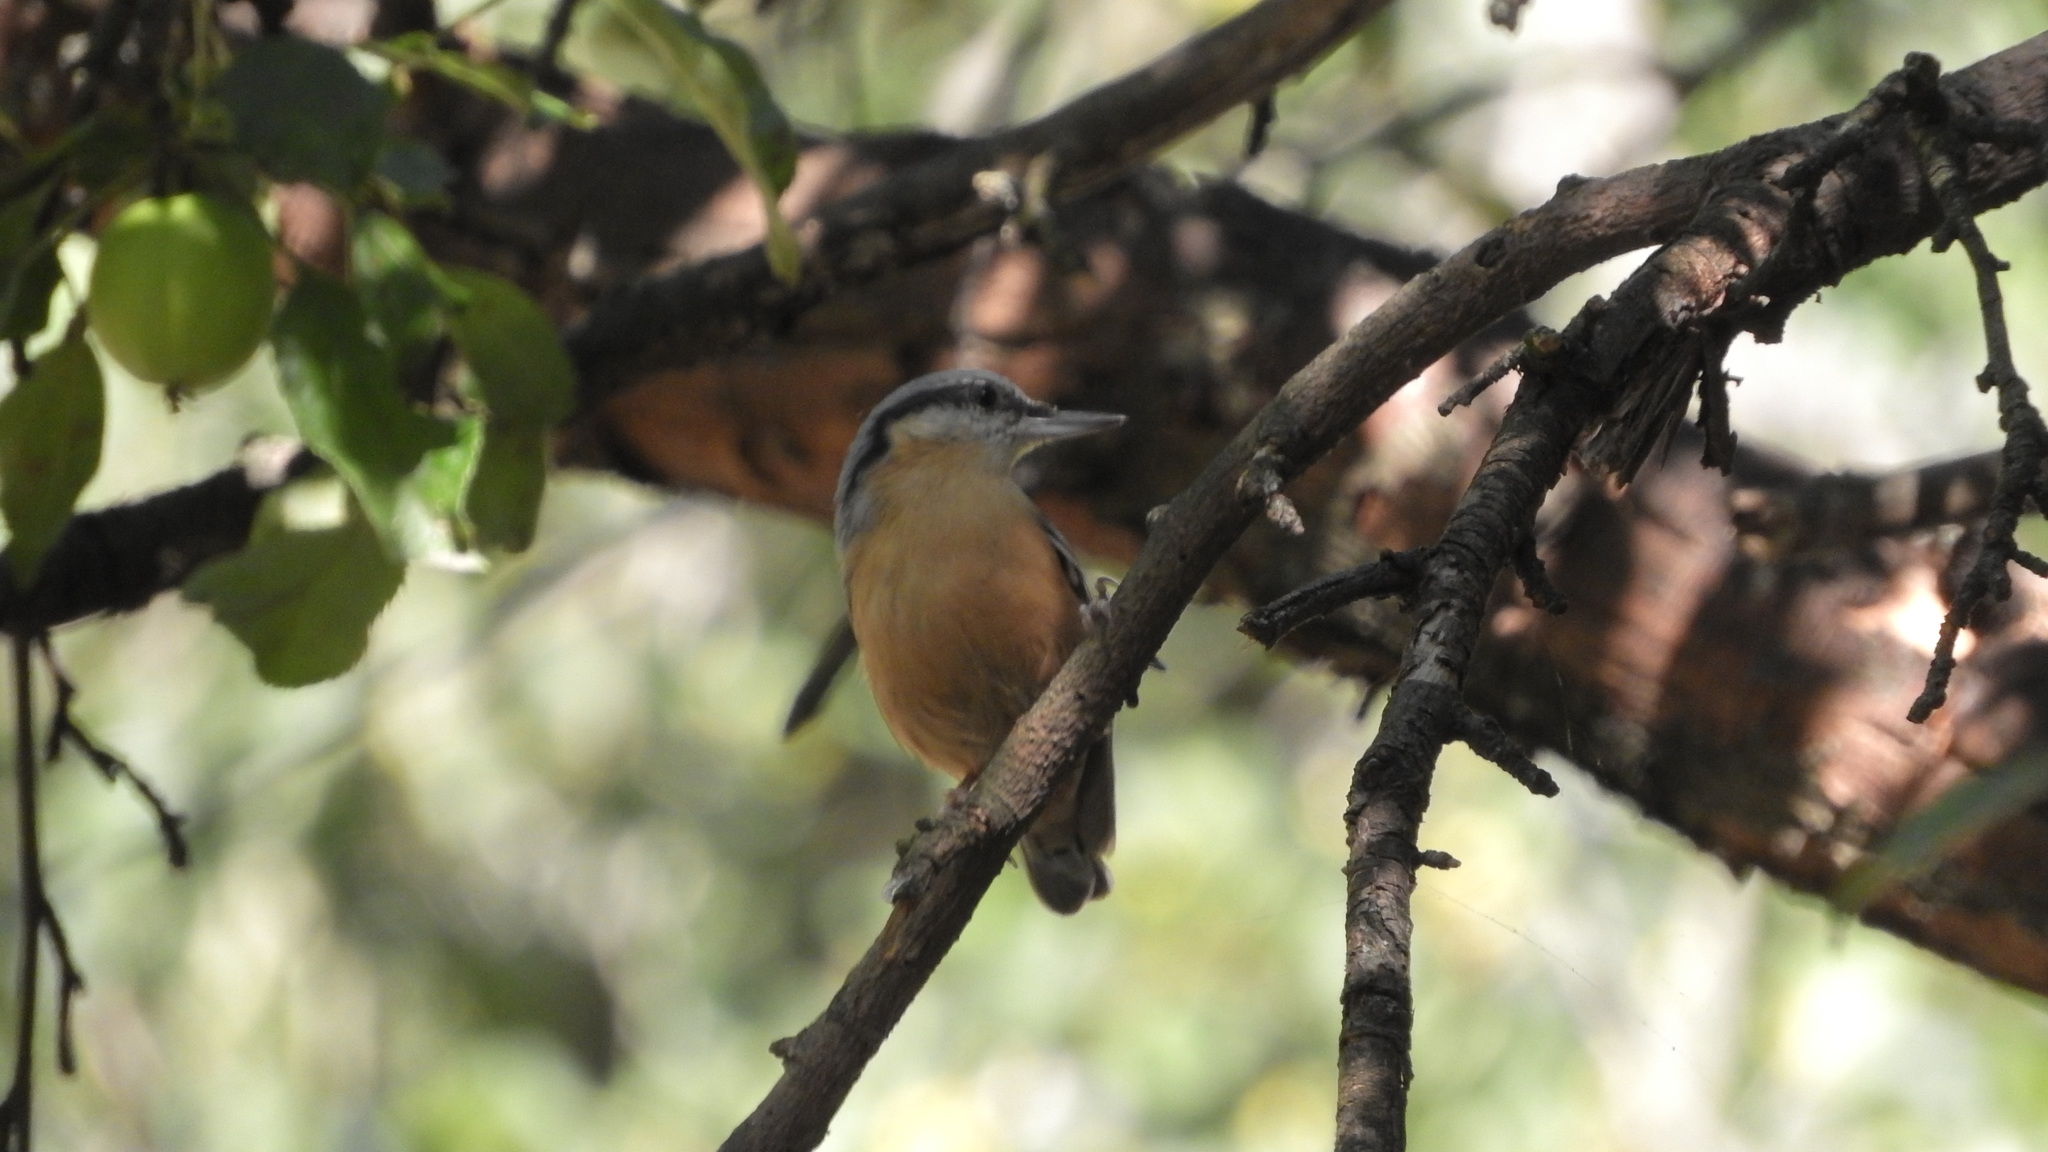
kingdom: Animalia
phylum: Chordata
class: Aves
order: Passeriformes
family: Sittidae
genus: Sitta
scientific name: Sitta europaea
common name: Eurasian nuthatch
